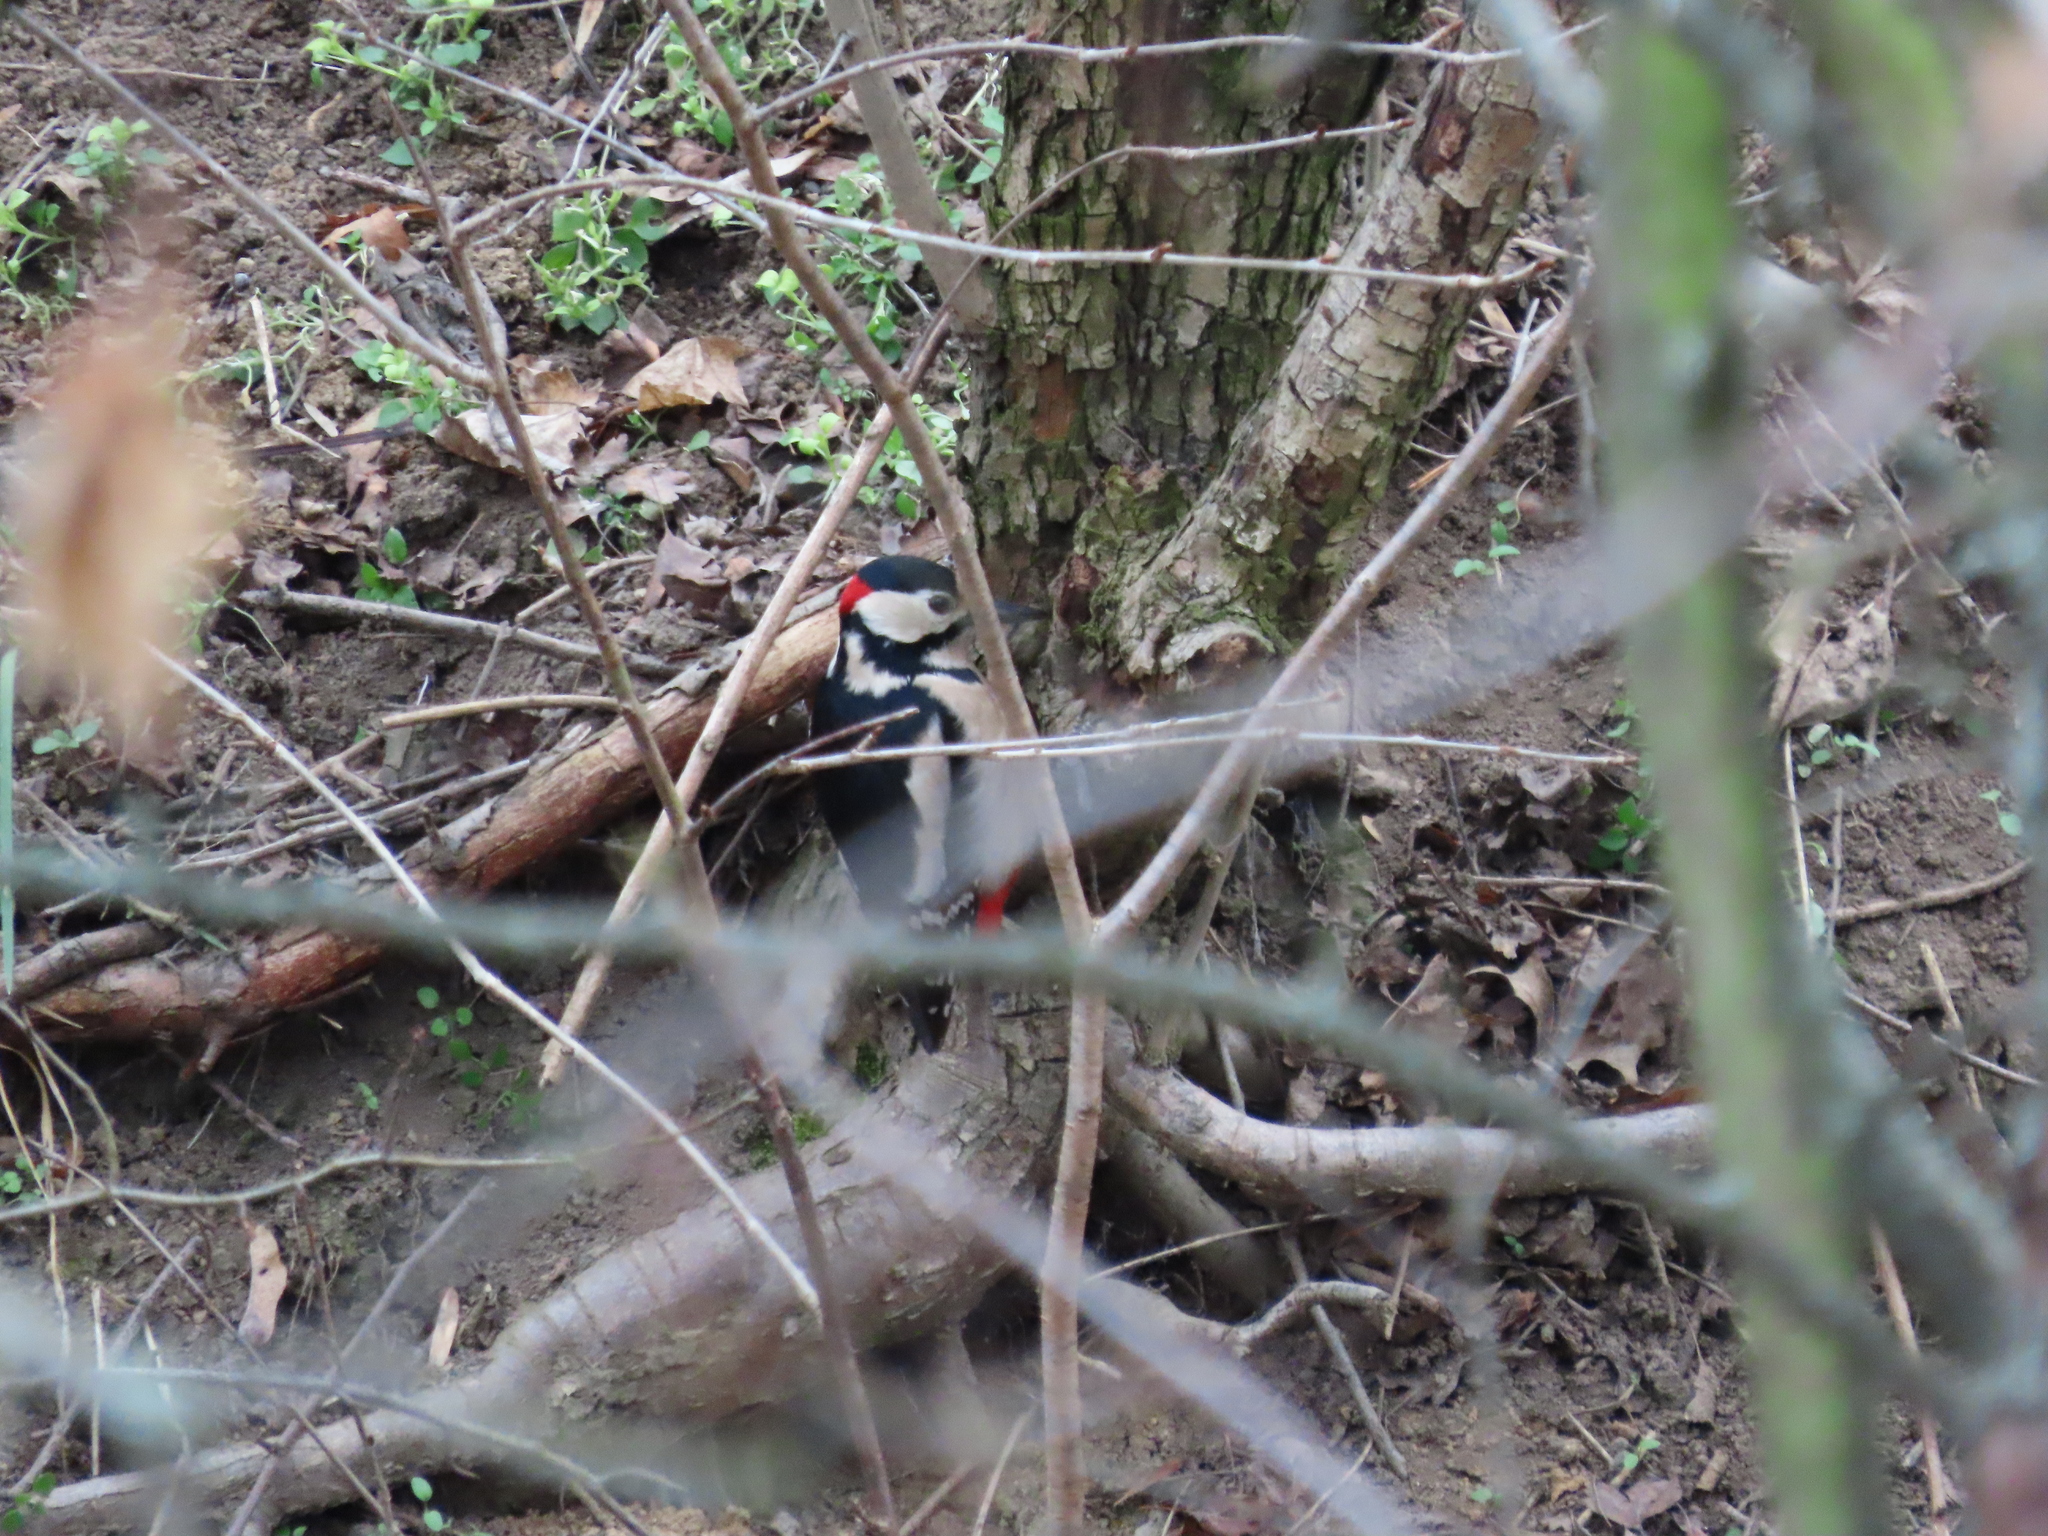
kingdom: Animalia
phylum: Chordata
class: Aves
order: Piciformes
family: Picidae
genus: Dendrocopos
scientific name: Dendrocopos major
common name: Great spotted woodpecker
